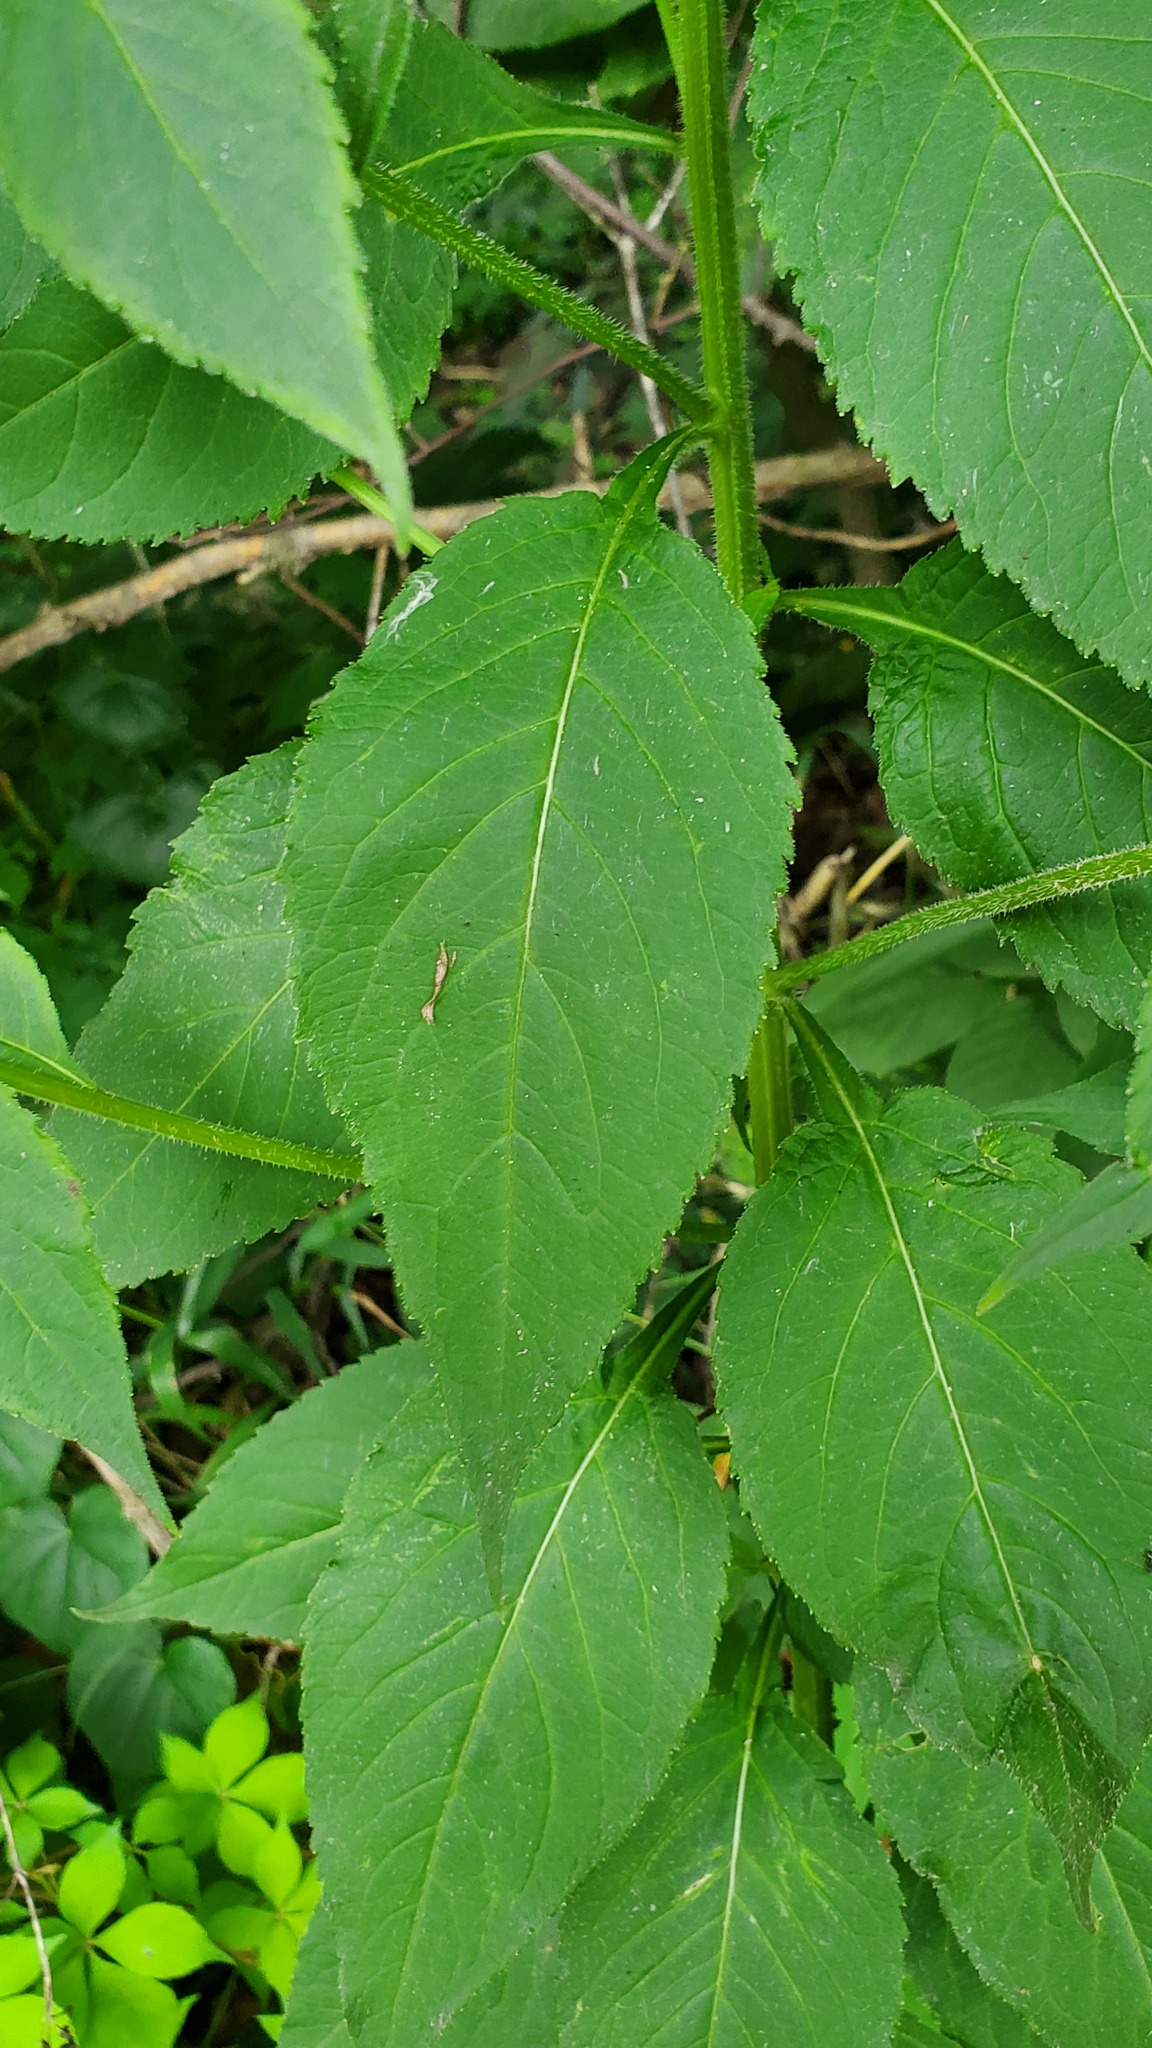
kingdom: Plantae
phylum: Tracheophyta
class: Magnoliopsida
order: Asterales
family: Campanulaceae
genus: Campanulastrum
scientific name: Campanulastrum americanum
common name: American bellflower
